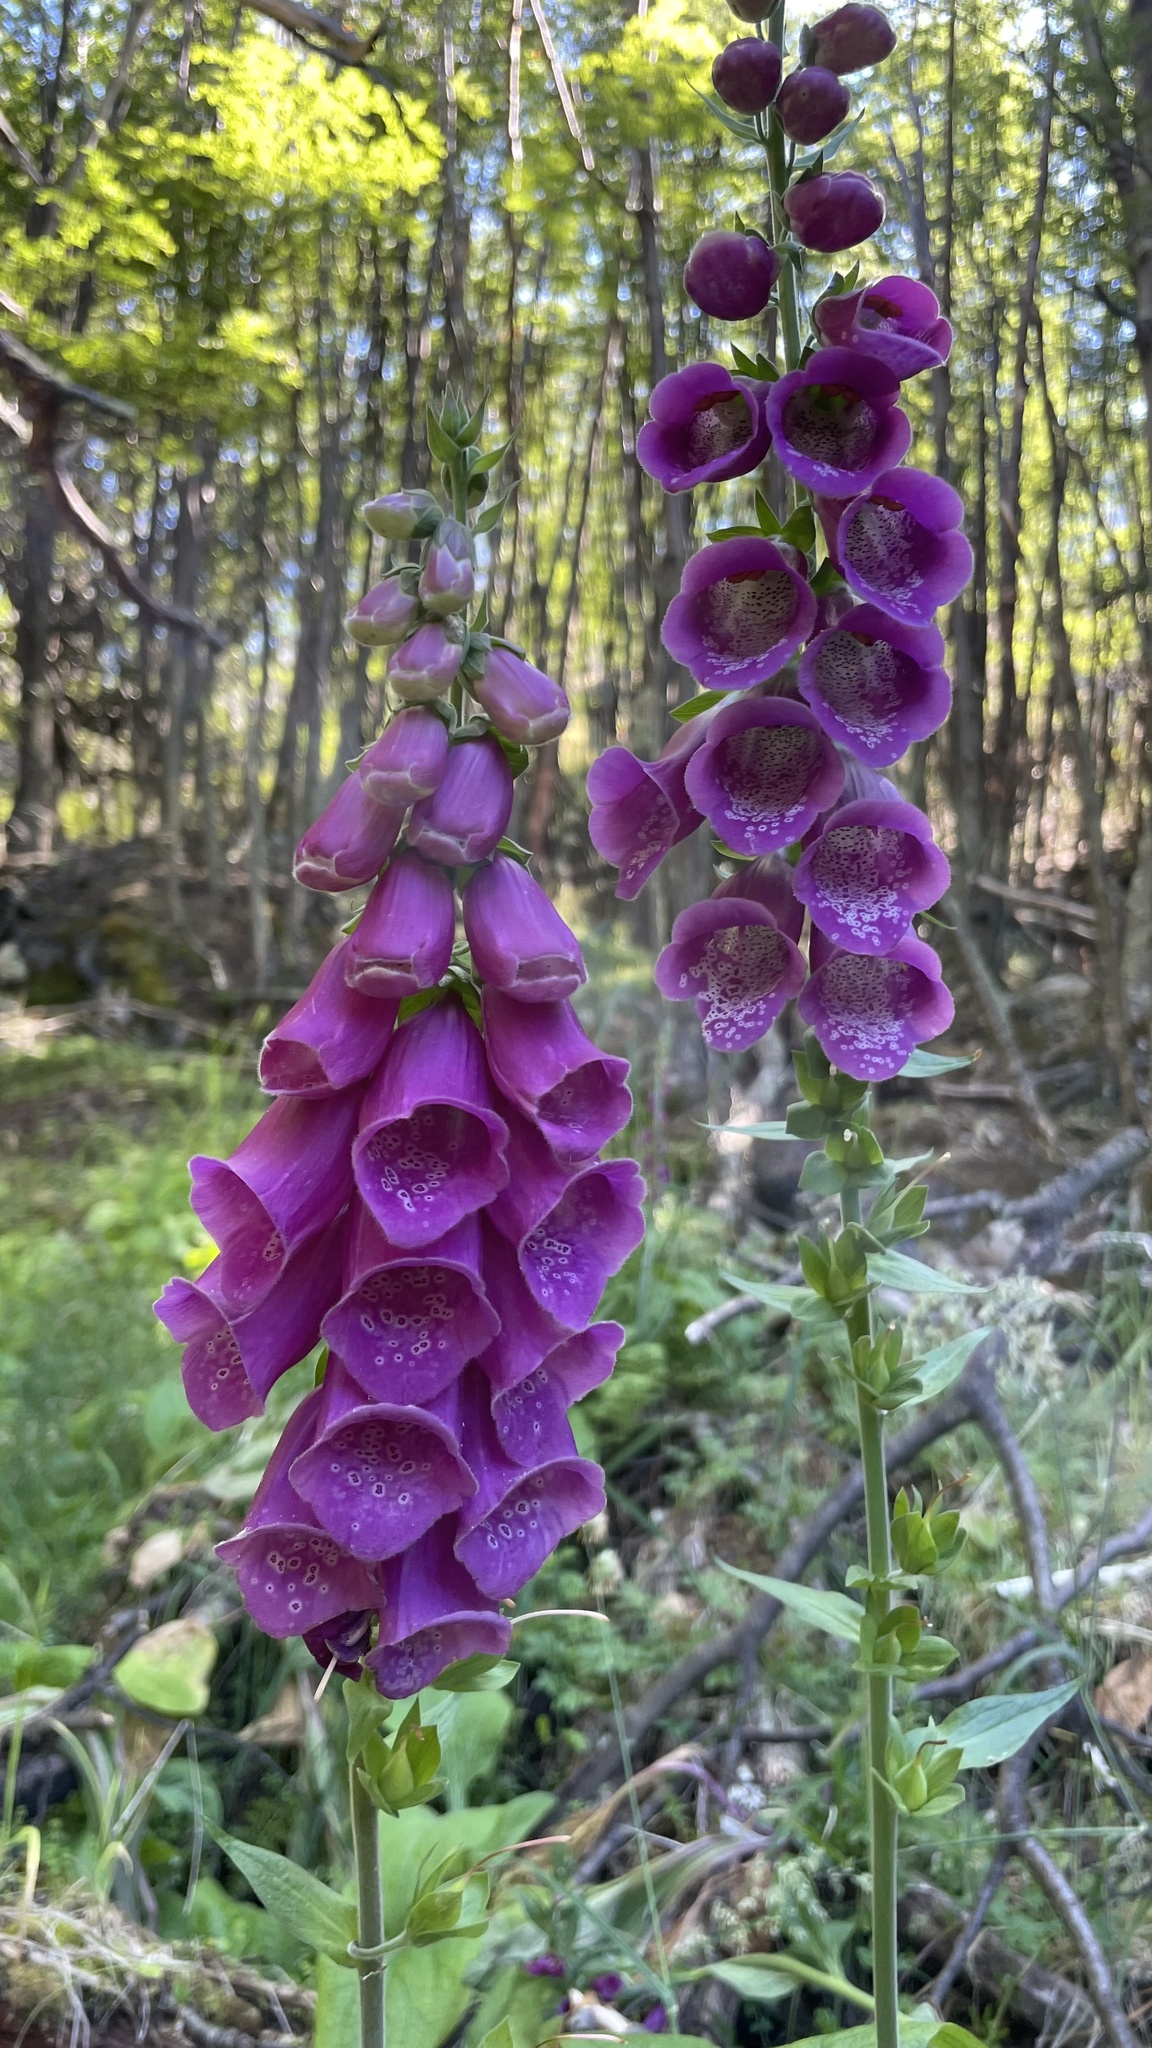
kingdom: Plantae
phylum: Tracheophyta
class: Magnoliopsida
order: Lamiales
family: Plantaginaceae
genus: Digitalis
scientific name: Digitalis purpurea
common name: Foxglove
